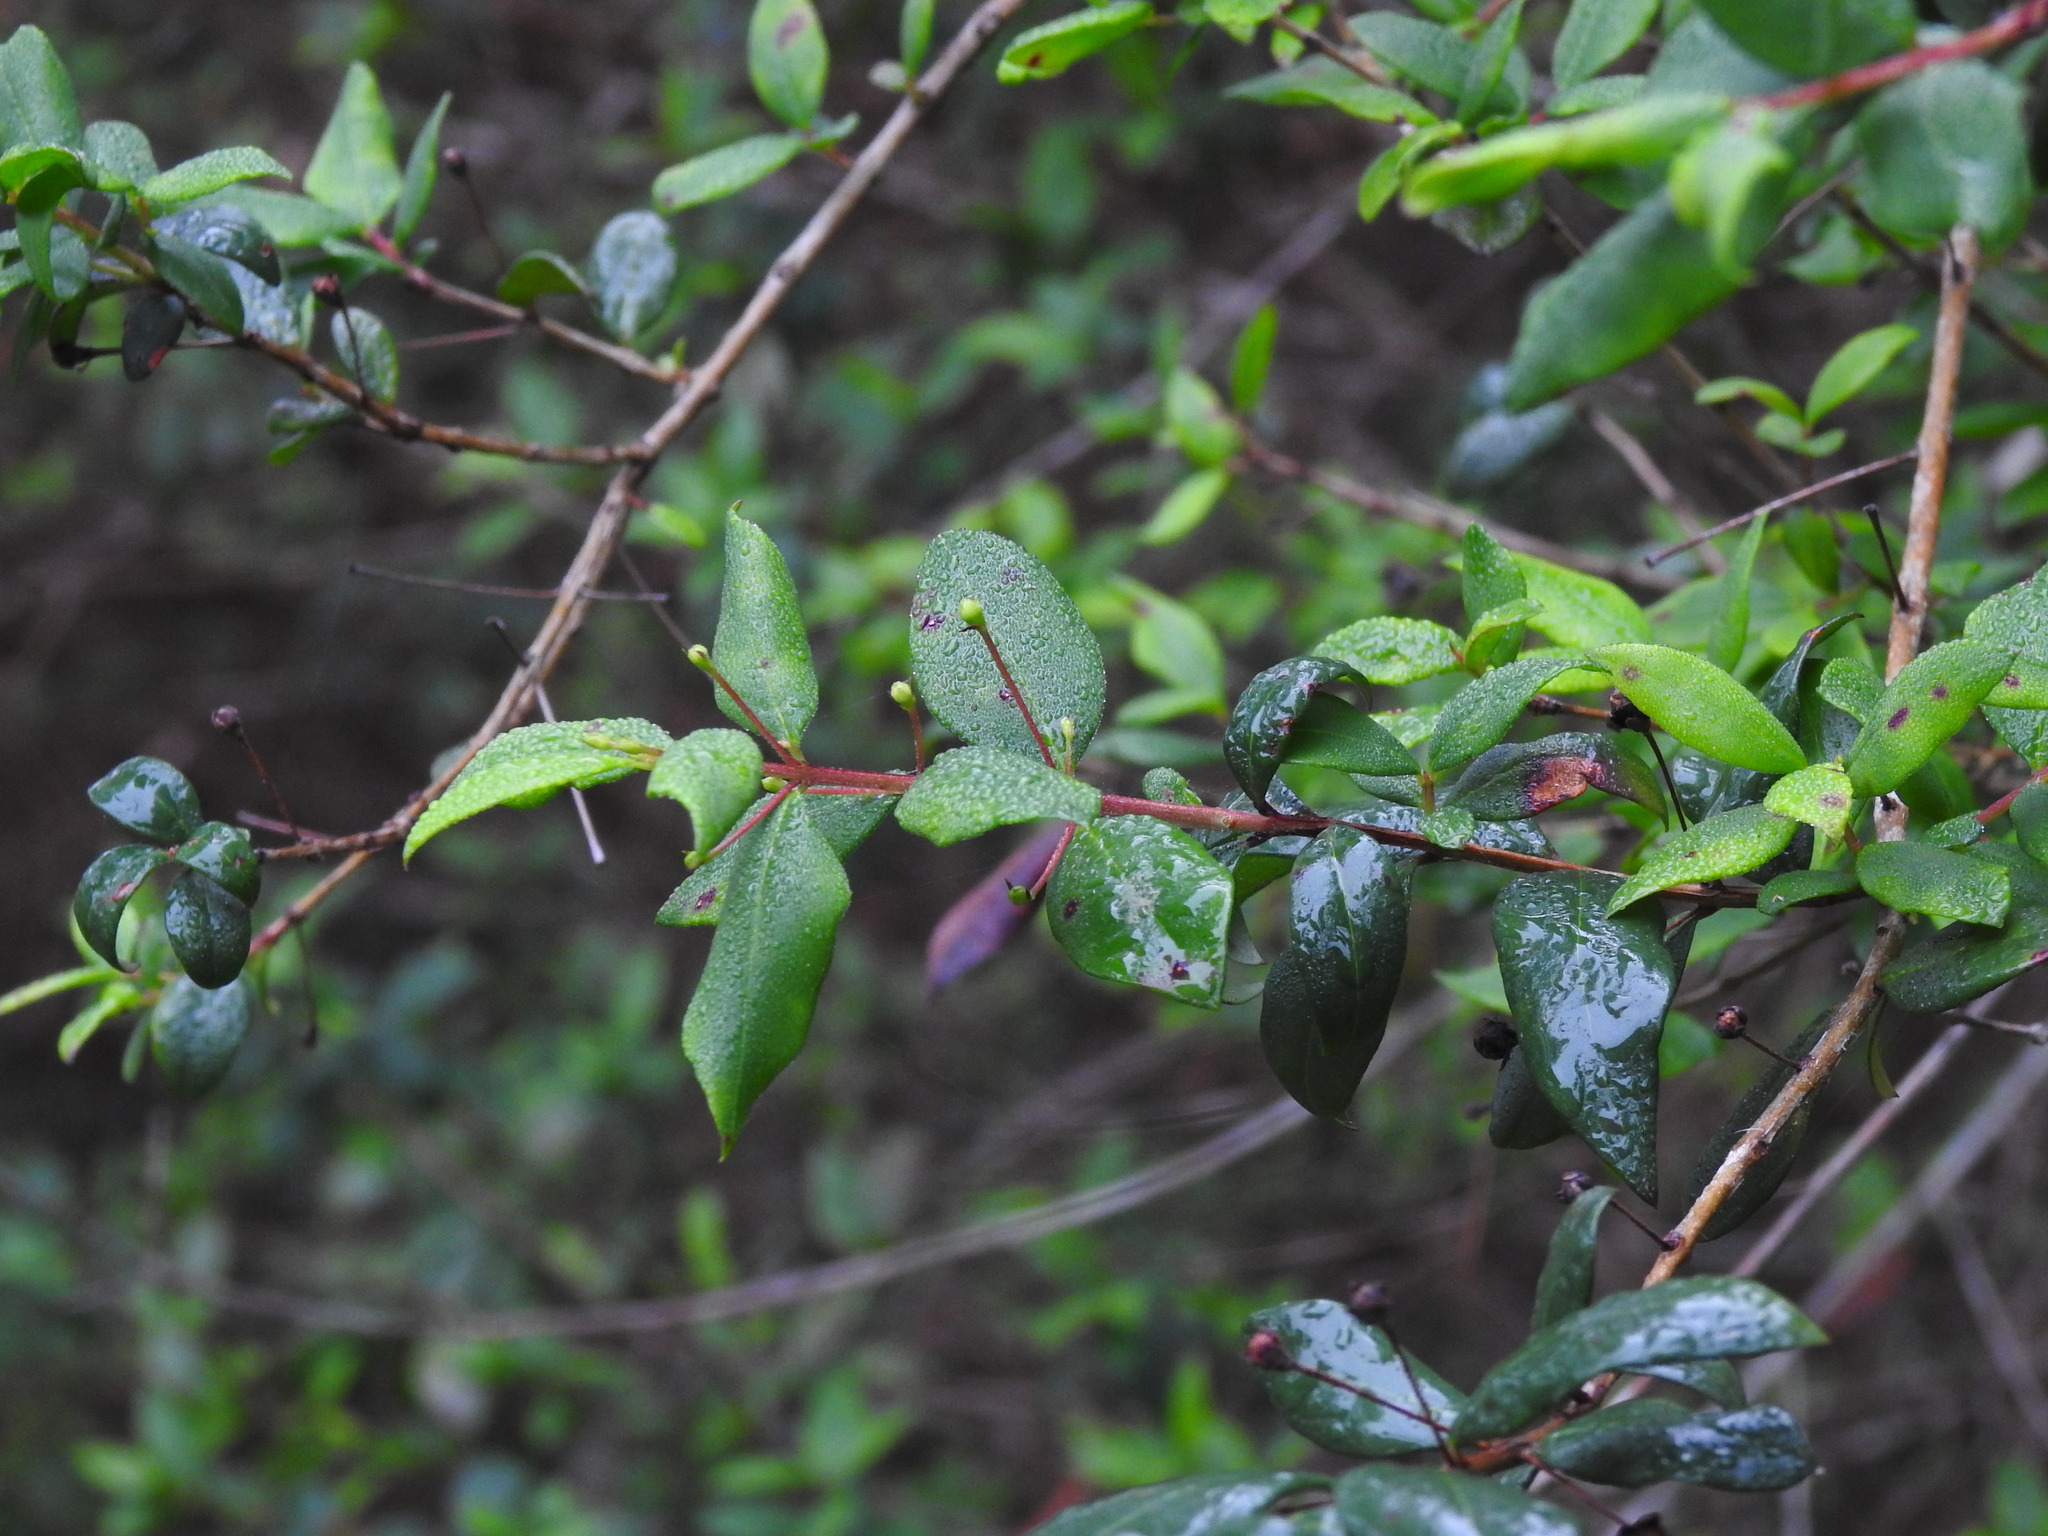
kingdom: Plantae
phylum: Tracheophyta
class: Magnoliopsida
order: Myrtales
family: Myrtaceae
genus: Myrtus
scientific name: Myrtus communis
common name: Myrtle
